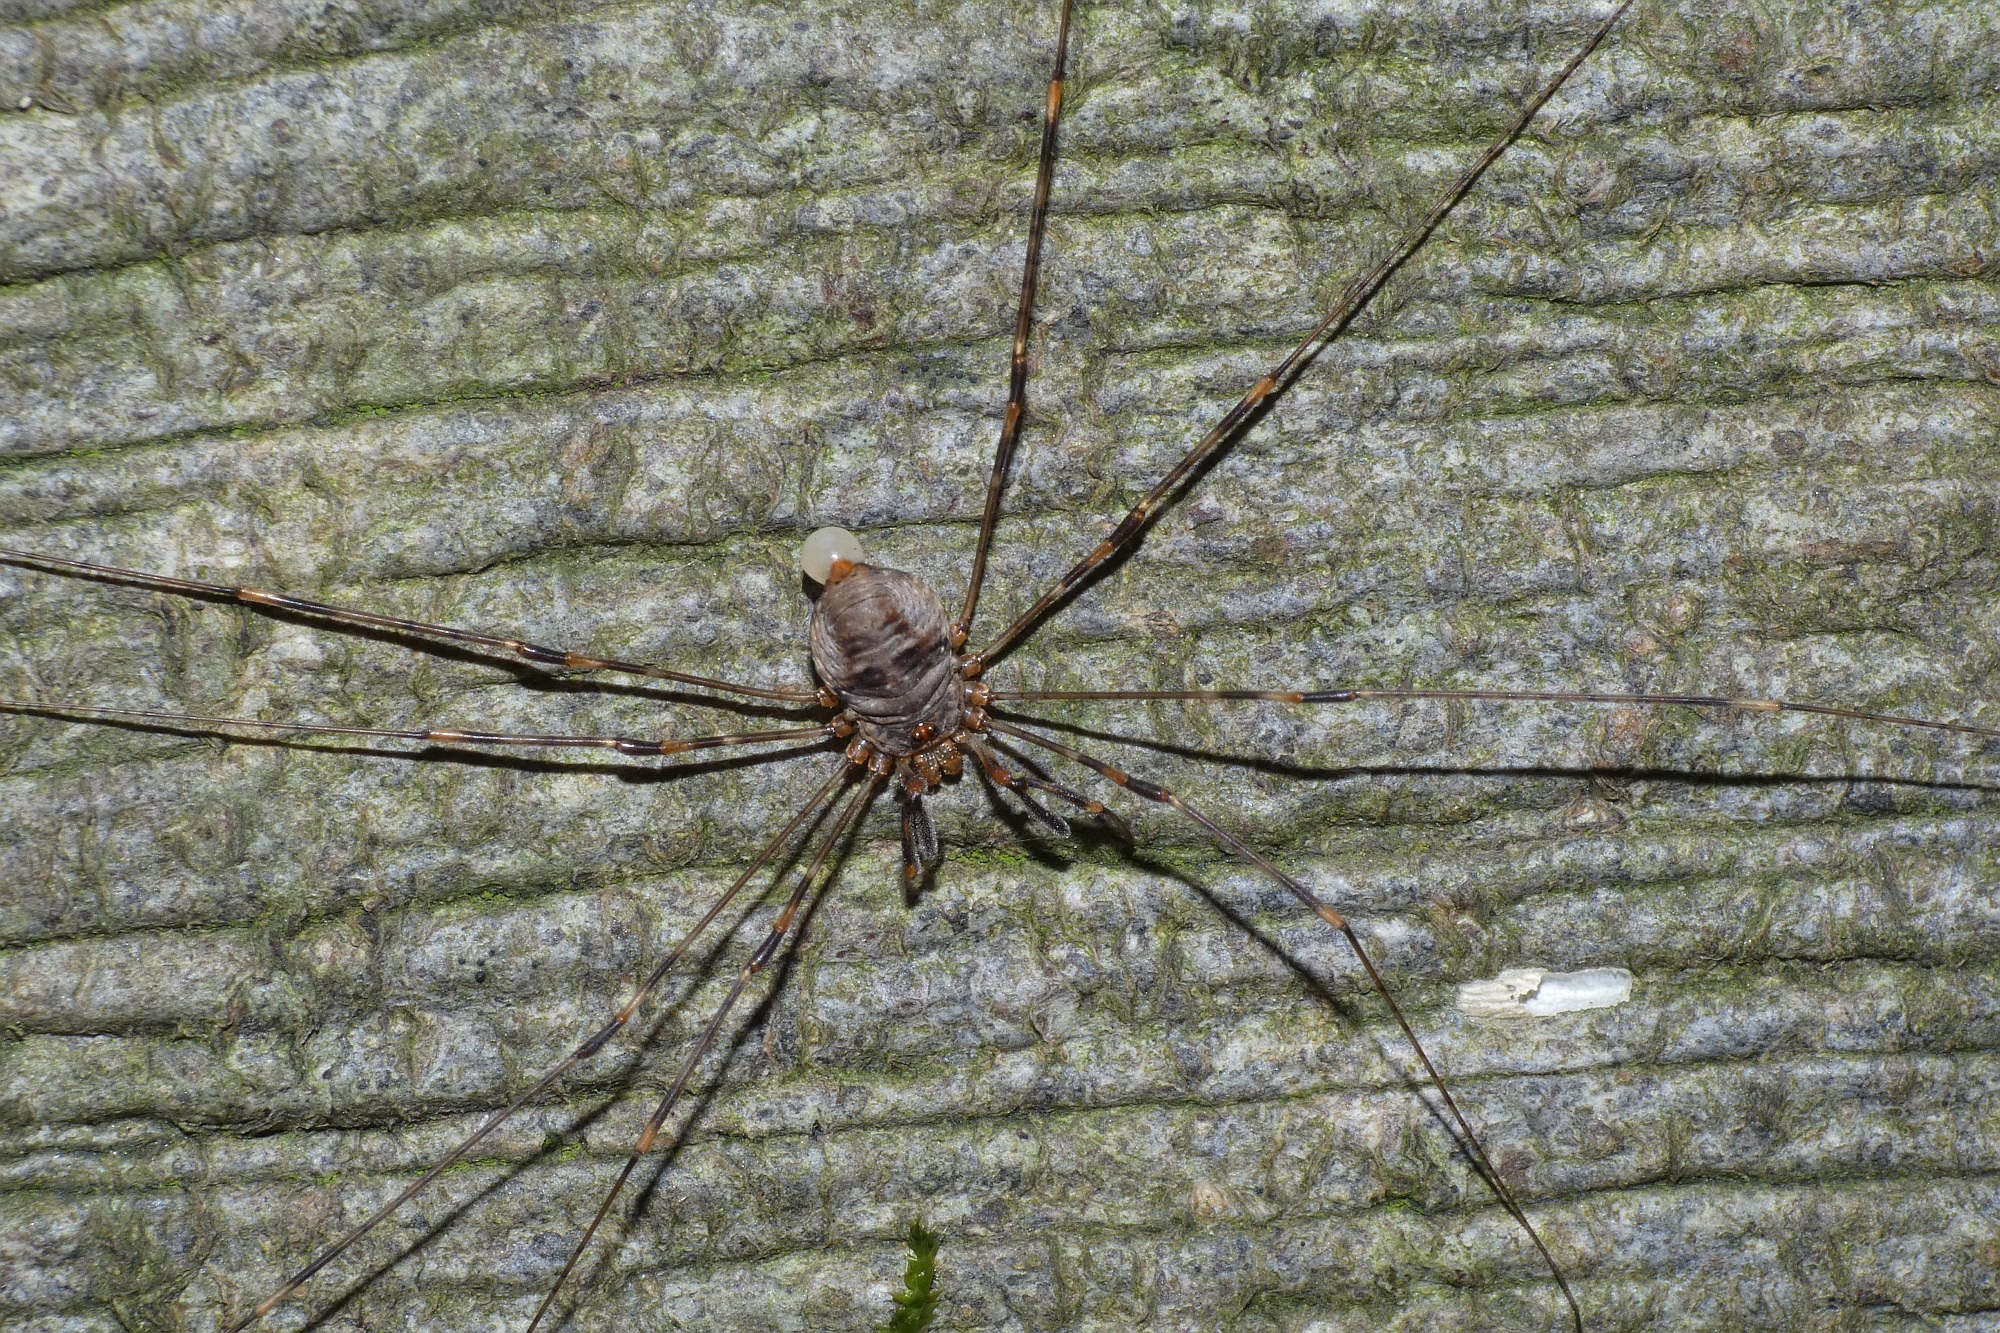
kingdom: Animalia
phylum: Arthropoda
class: Arachnida
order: Opiliones
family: Phalangiidae
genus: Dicranopalpus
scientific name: Dicranopalpus ramosus
